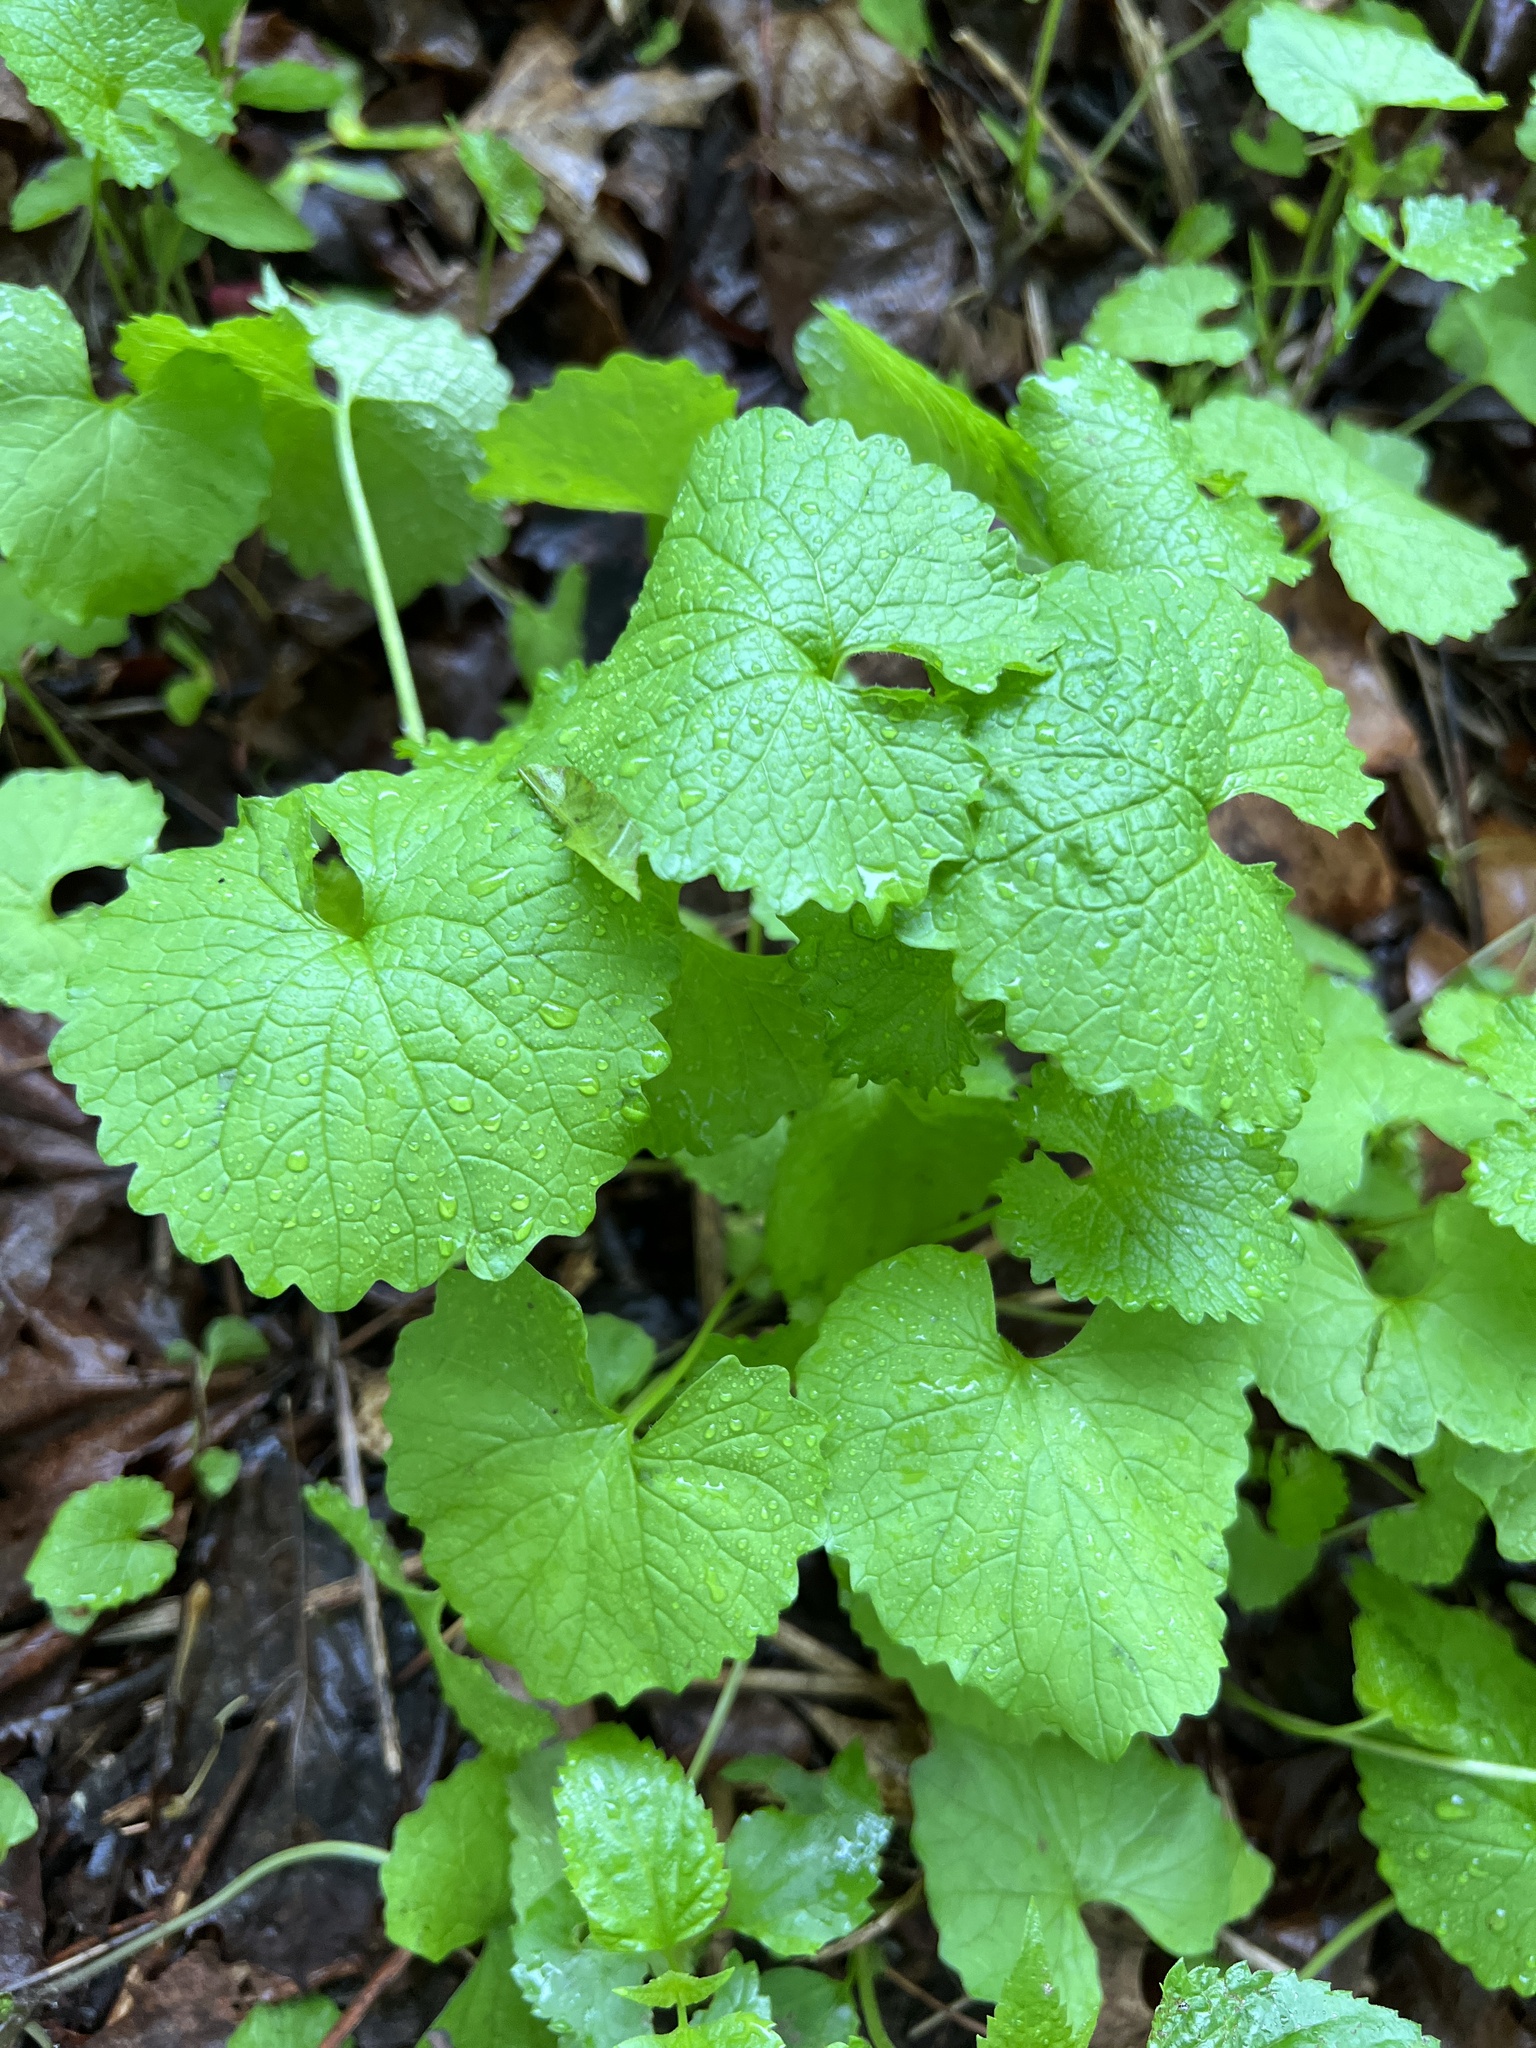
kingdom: Plantae
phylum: Tracheophyta
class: Magnoliopsida
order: Brassicales
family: Brassicaceae
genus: Alliaria
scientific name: Alliaria petiolata
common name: Garlic mustard
